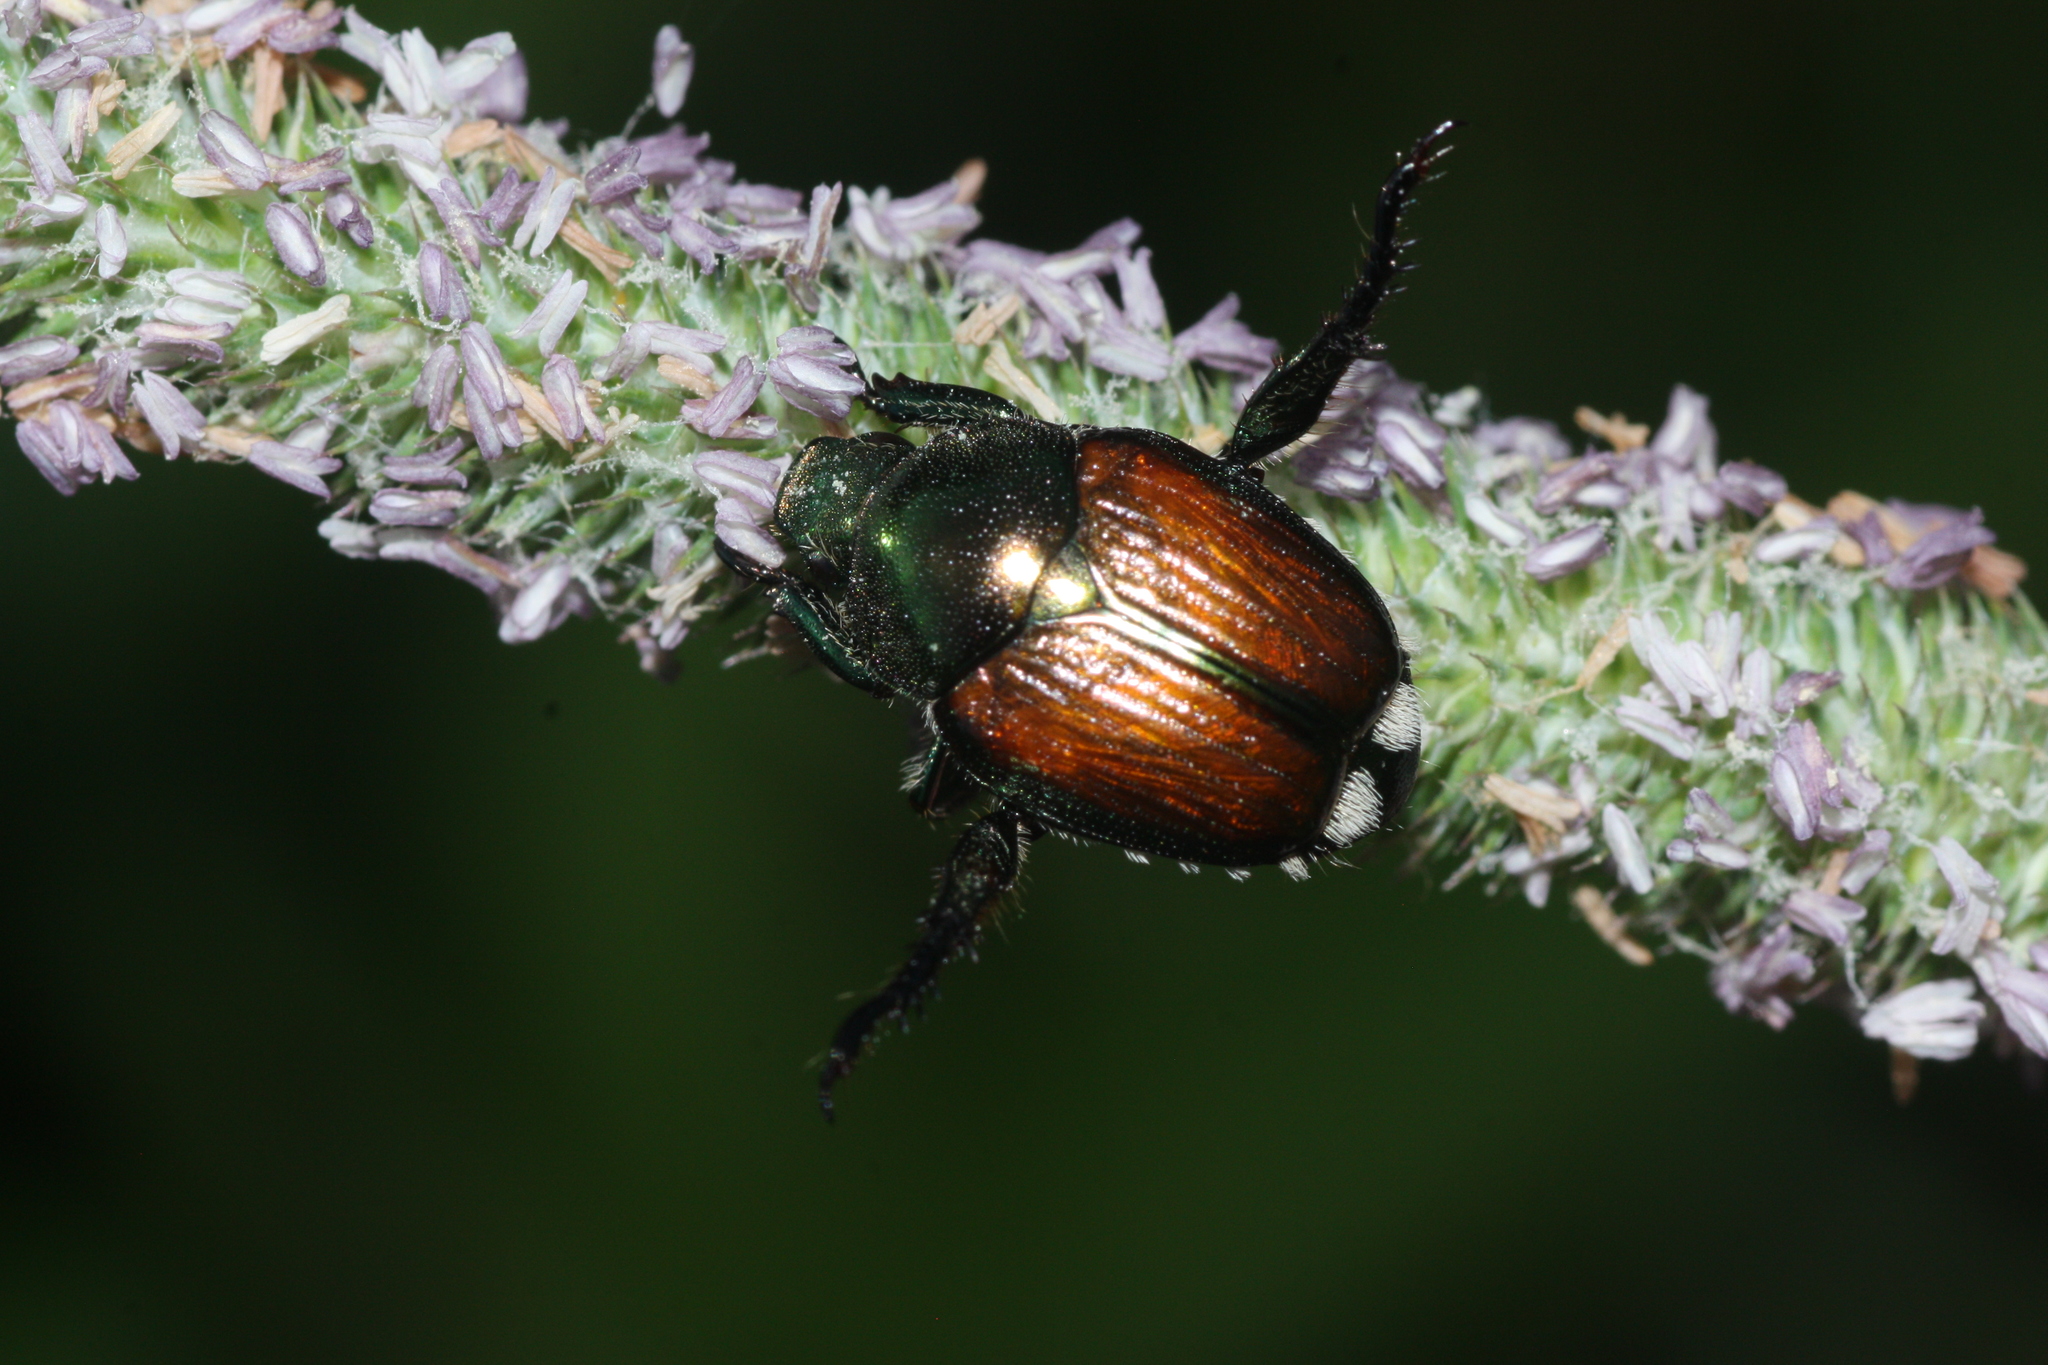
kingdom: Animalia
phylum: Arthropoda
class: Insecta
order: Coleoptera
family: Scarabaeidae
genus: Popillia
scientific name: Popillia japonica
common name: Japanese beetle
